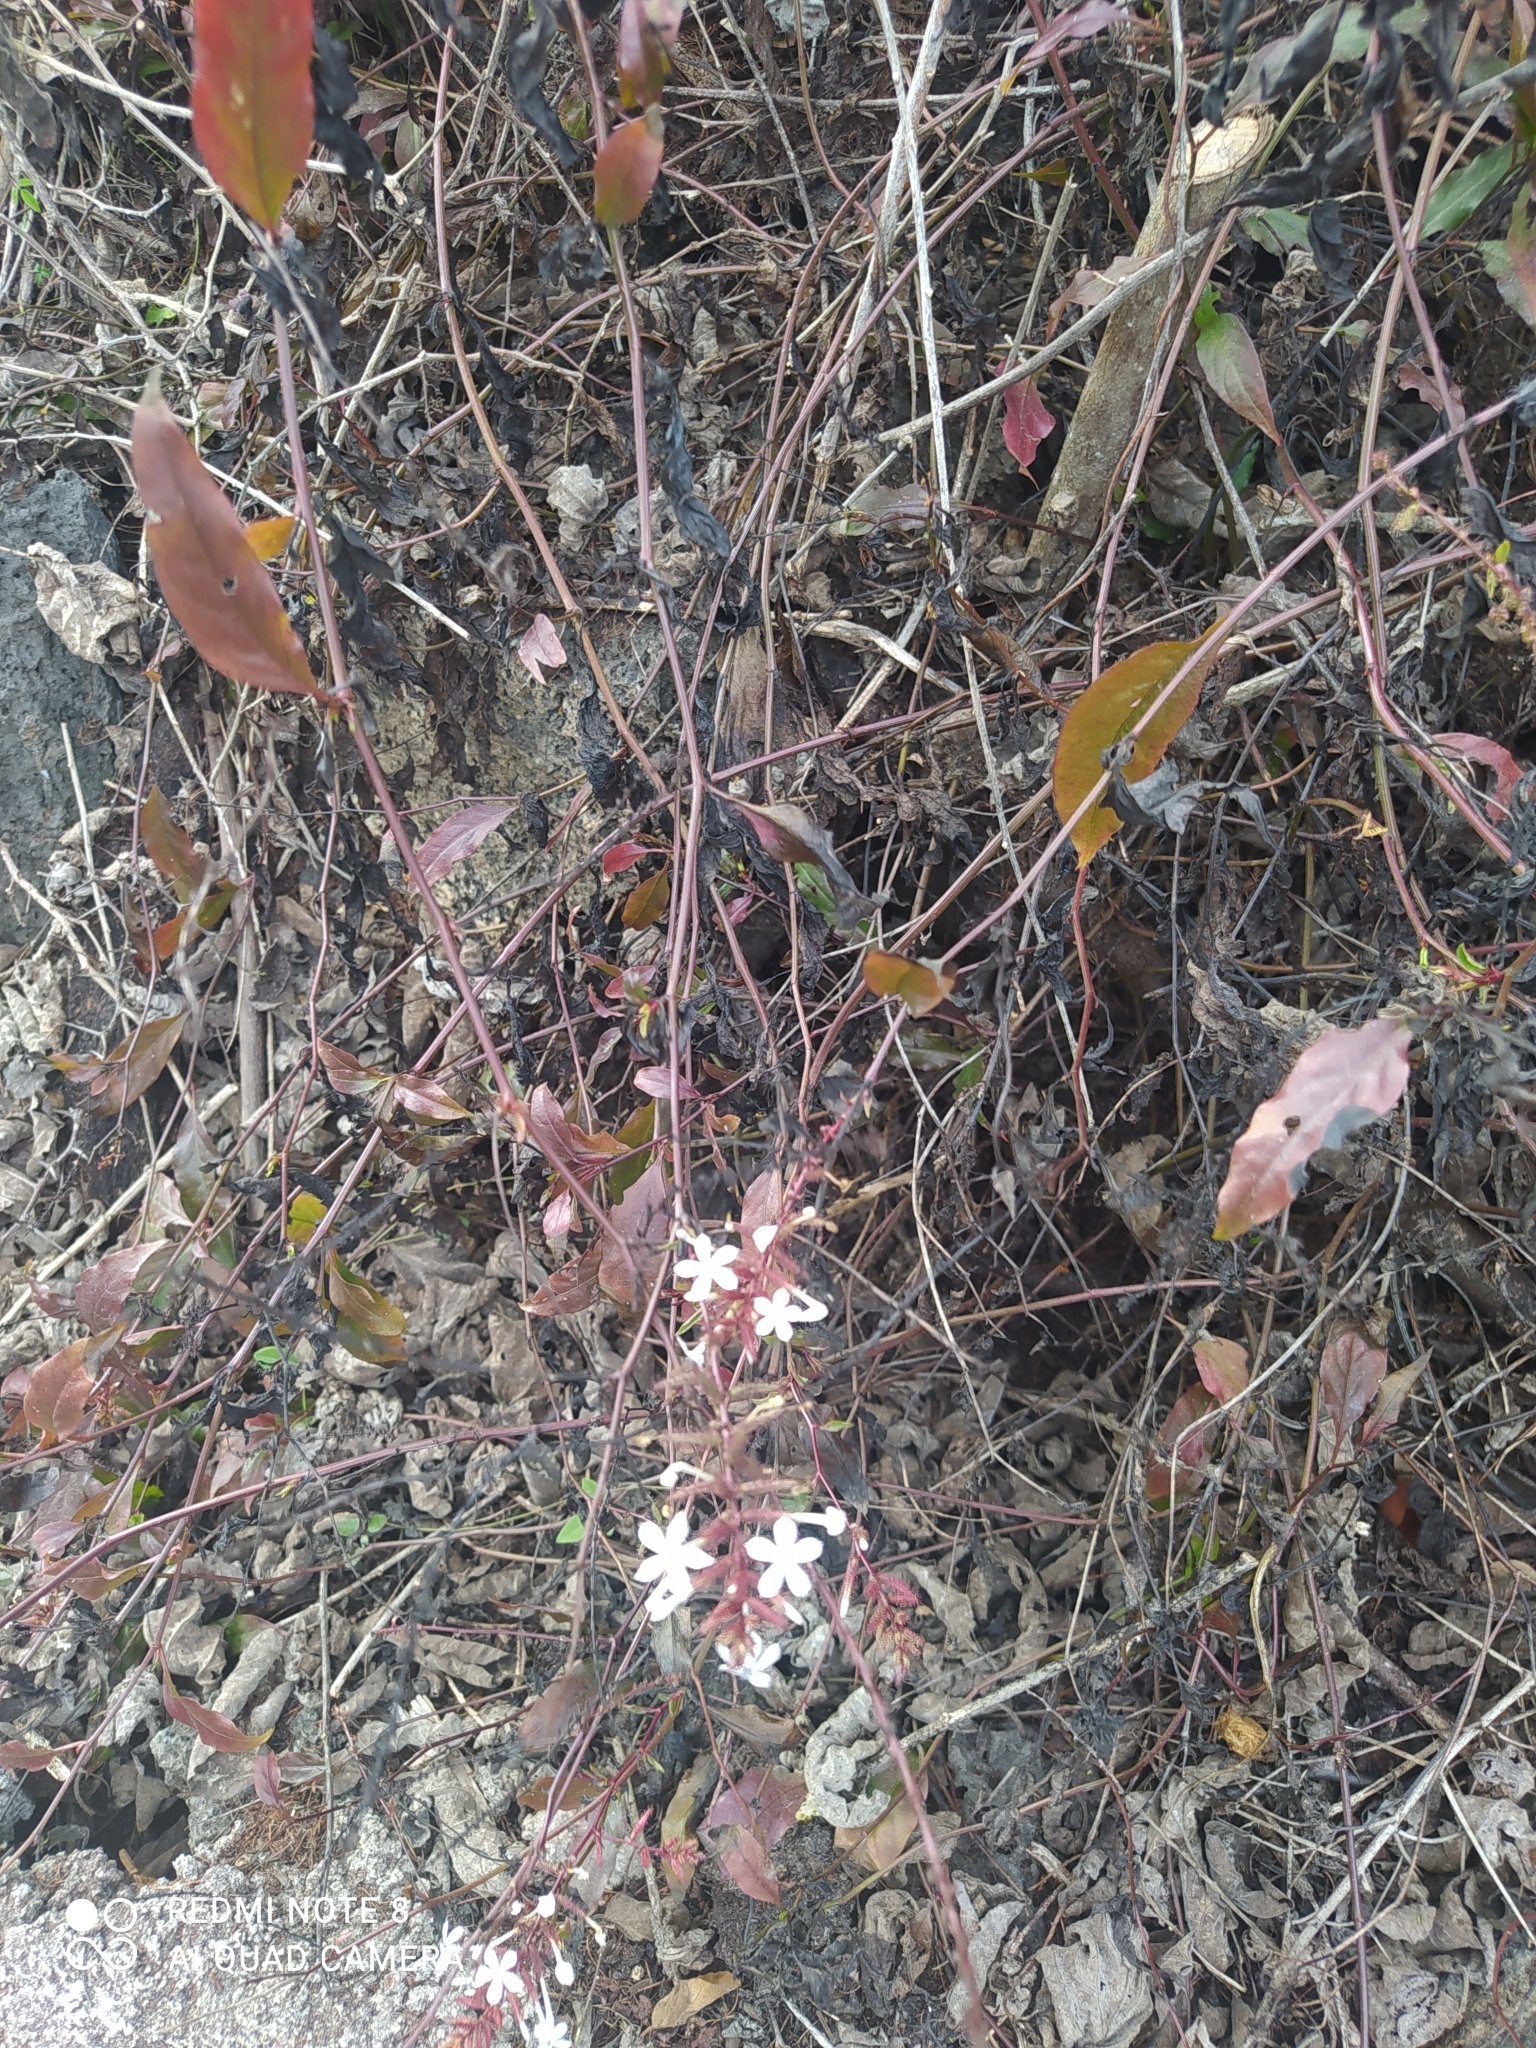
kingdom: Plantae
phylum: Tracheophyta
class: Magnoliopsida
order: Caryophyllales
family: Plumbaginaceae
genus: Plumbago
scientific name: Plumbago zeylanica
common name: Doctorbush
